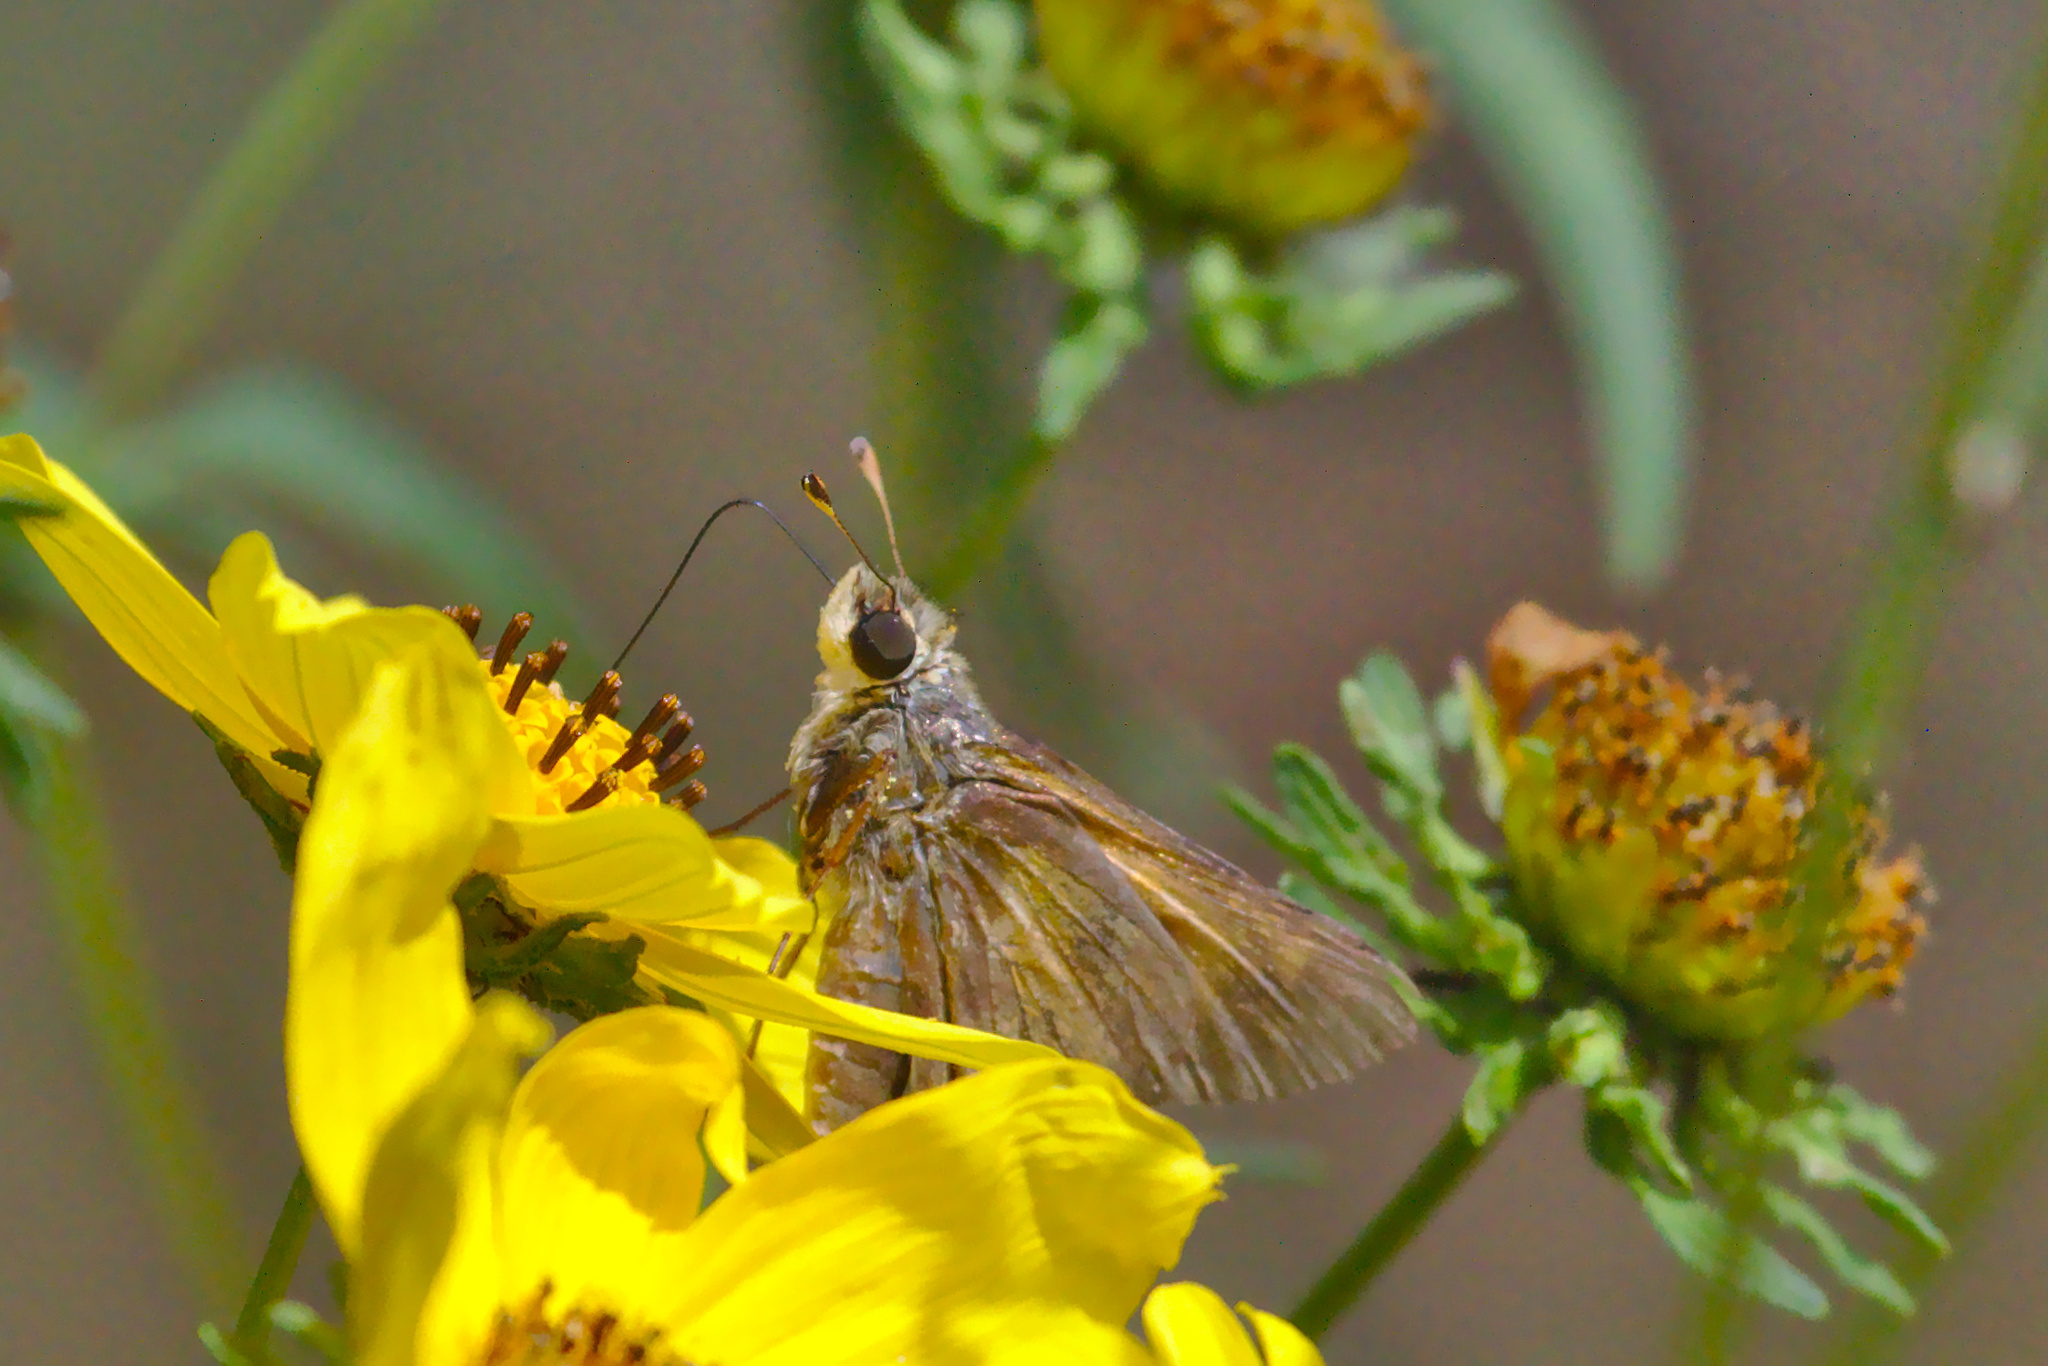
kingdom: Animalia
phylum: Arthropoda
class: Insecta
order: Lepidoptera
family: Hesperiidae
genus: Atalopedes
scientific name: Atalopedes
